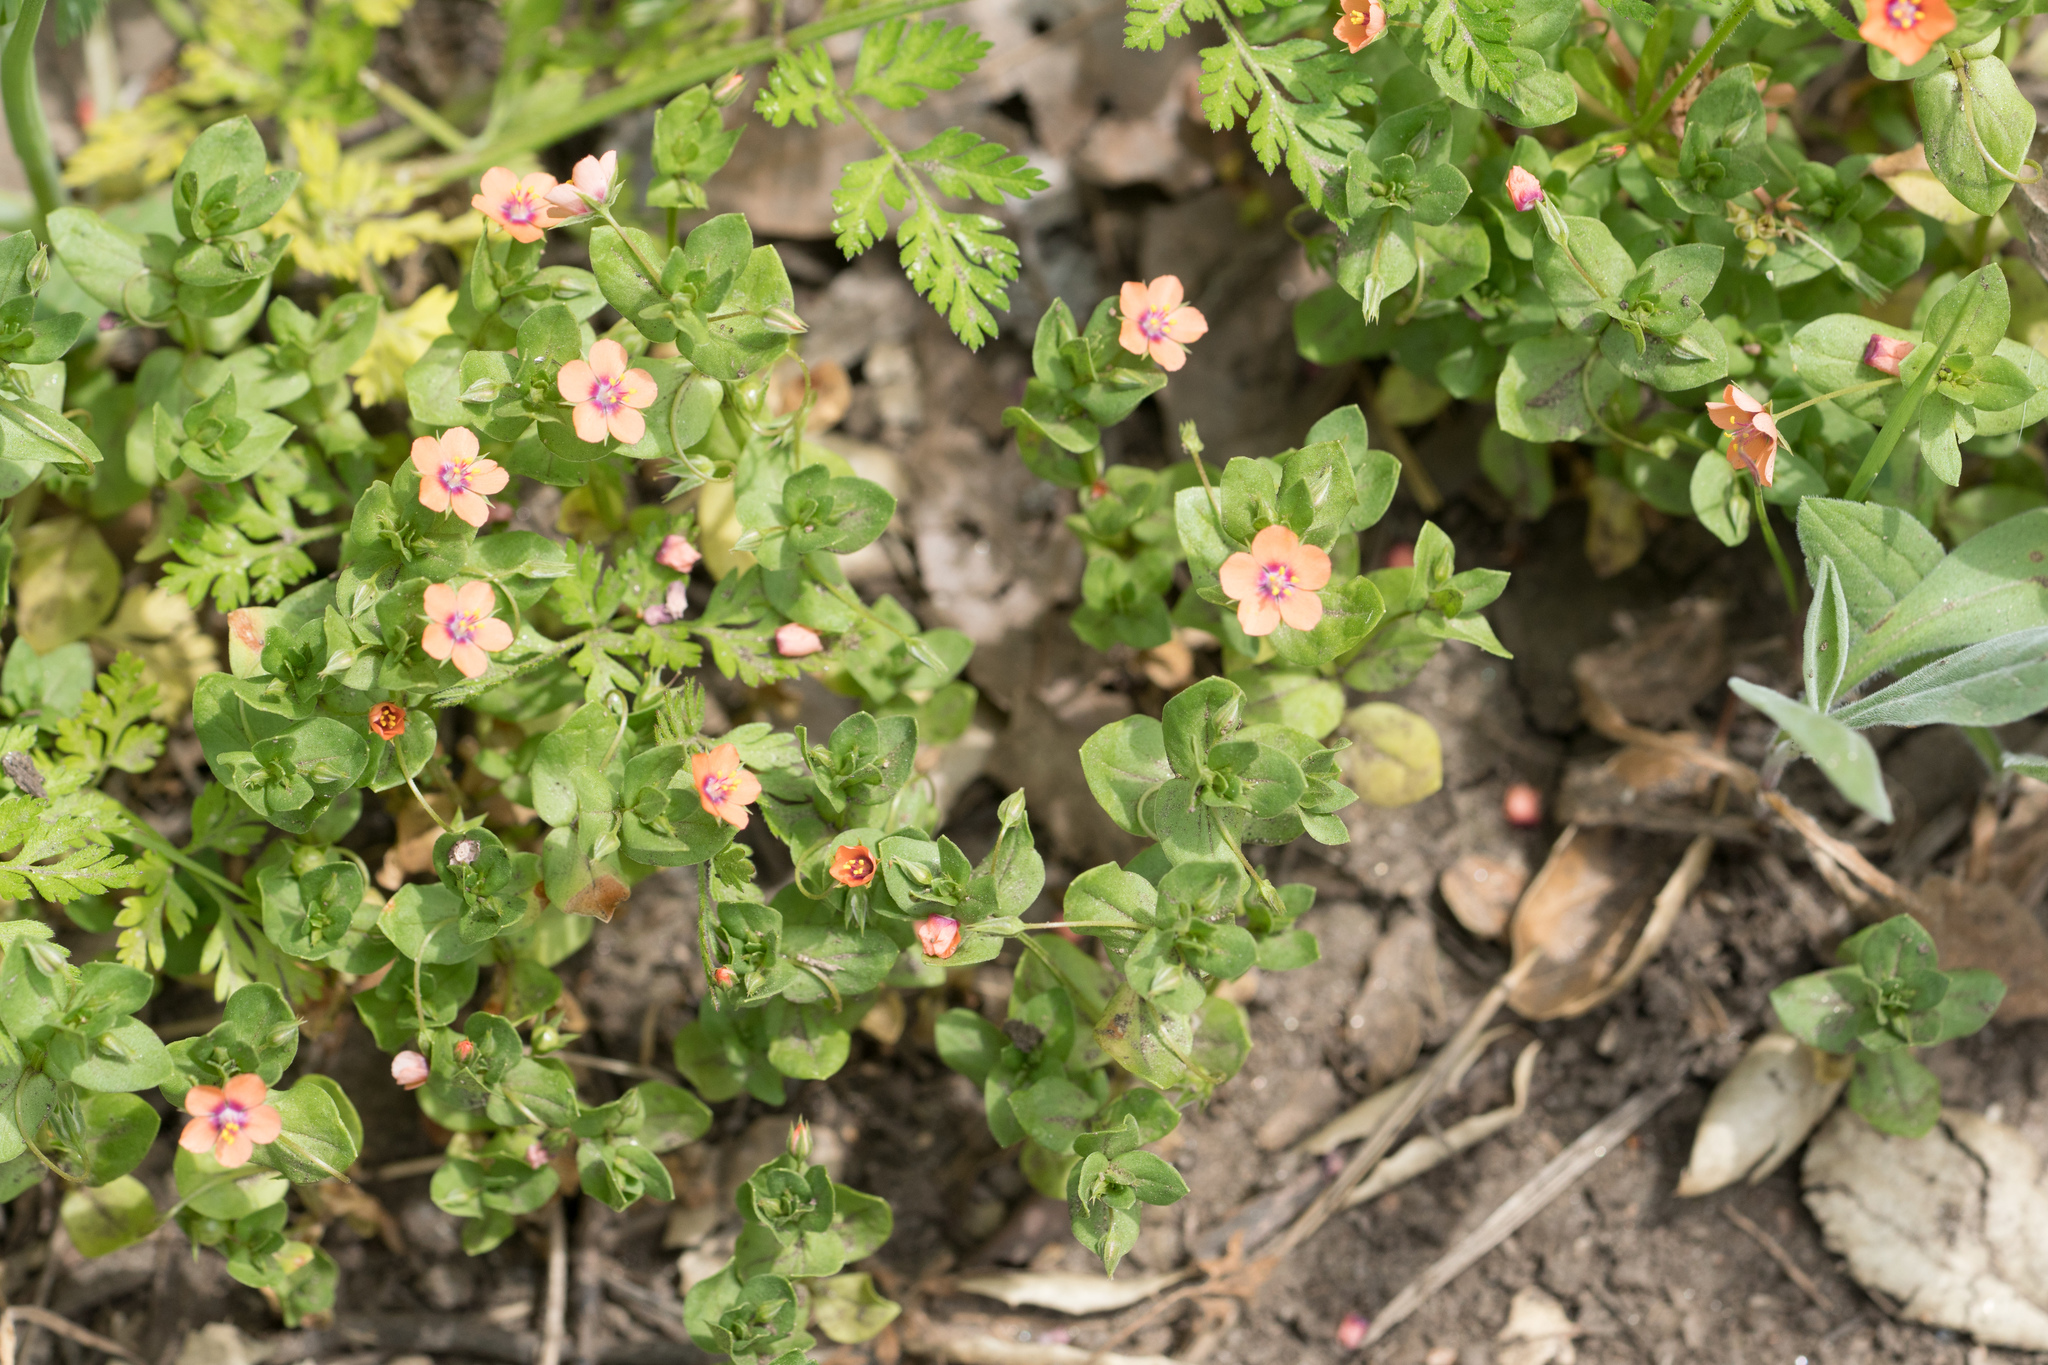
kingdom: Plantae
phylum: Tracheophyta
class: Magnoliopsida
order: Ericales
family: Primulaceae
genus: Lysimachia
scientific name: Lysimachia arvensis
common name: Scarlet pimpernel
